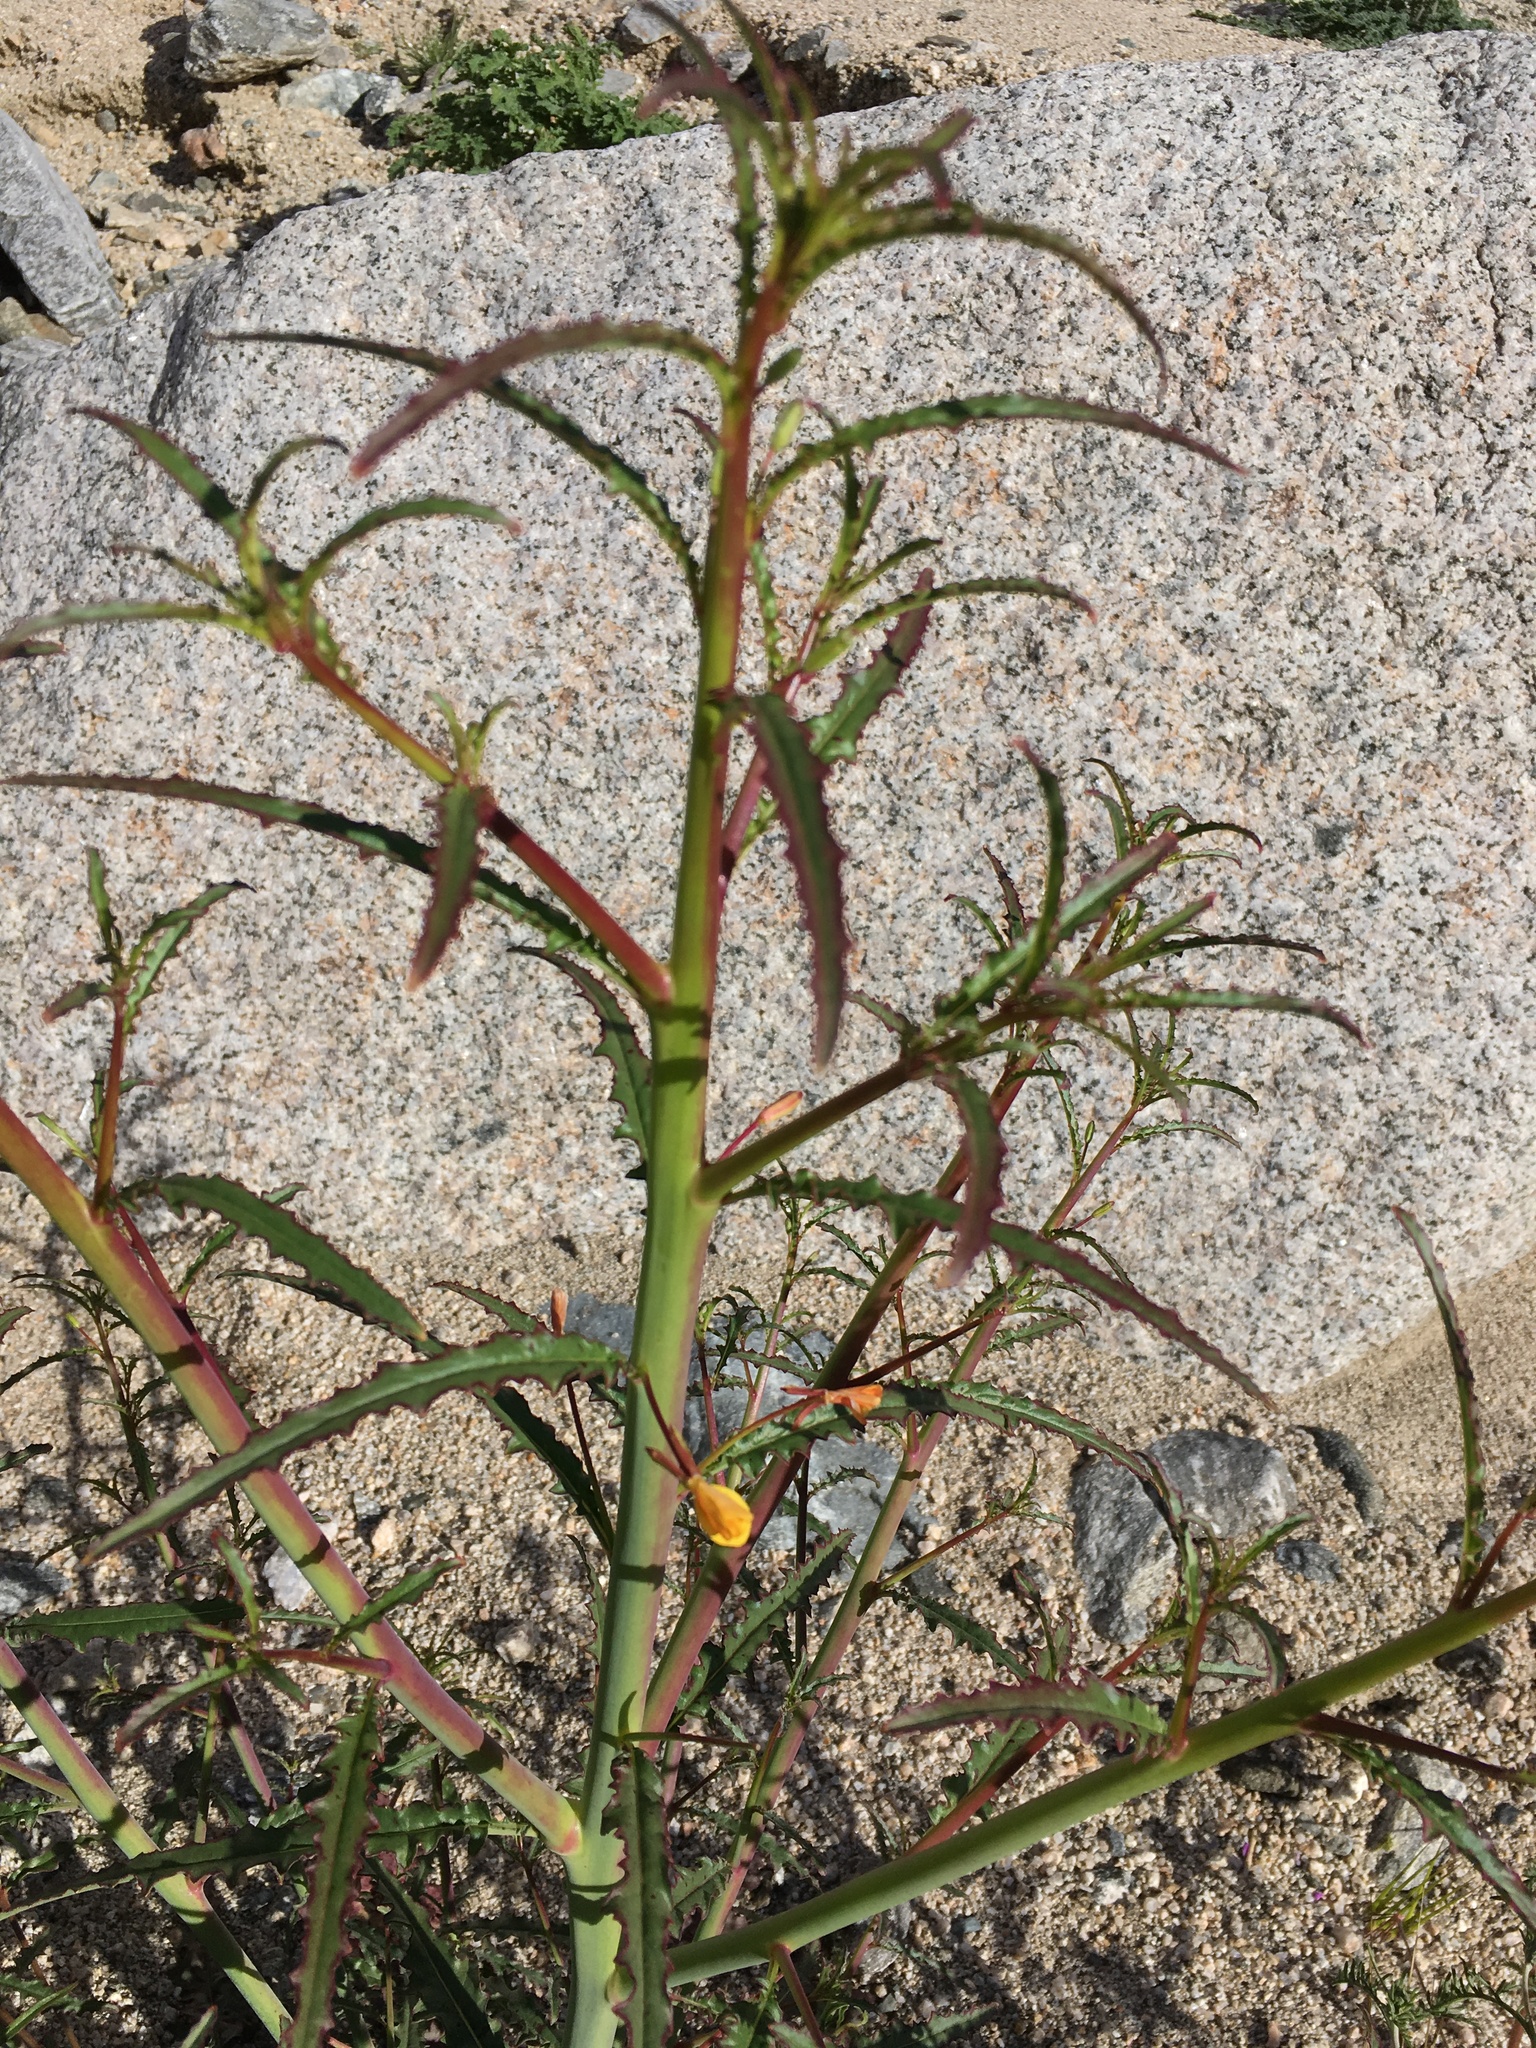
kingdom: Plantae
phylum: Tracheophyta
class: Magnoliopsida
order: Myrtales
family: Onagraceae
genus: Eulobus
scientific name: Eulobus californicus
